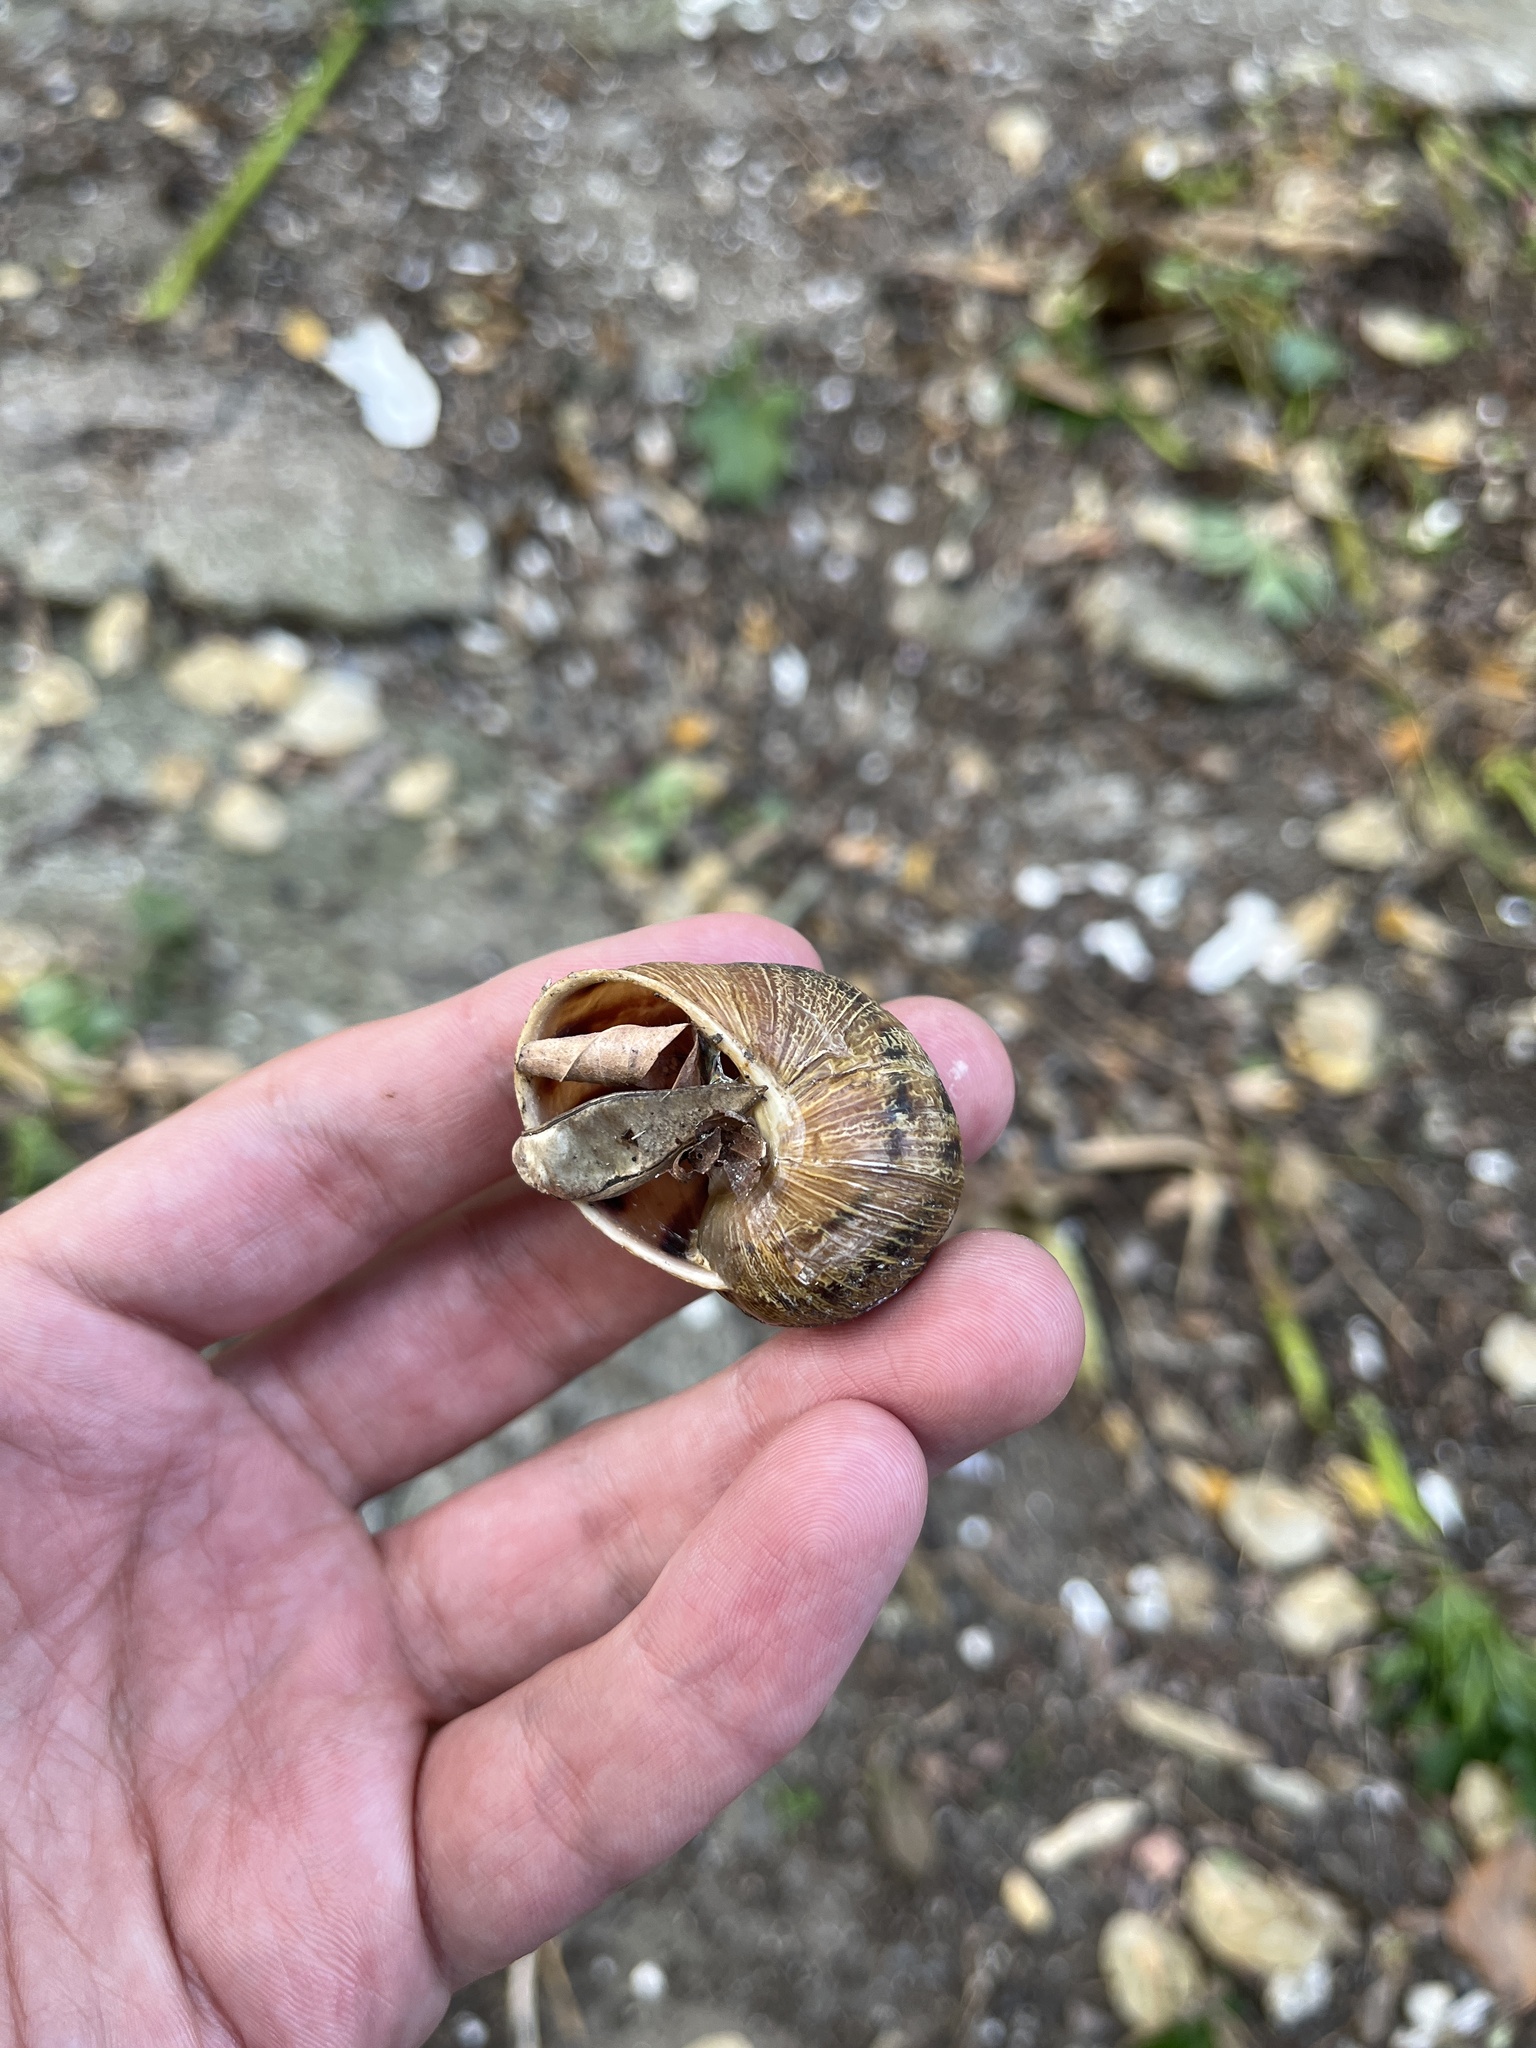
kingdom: Animalia
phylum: Mollusca
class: Gastropoda
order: Stylommatophora
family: Helicidae
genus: Cornu
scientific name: Cornu aspersum
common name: Brown garden snail
